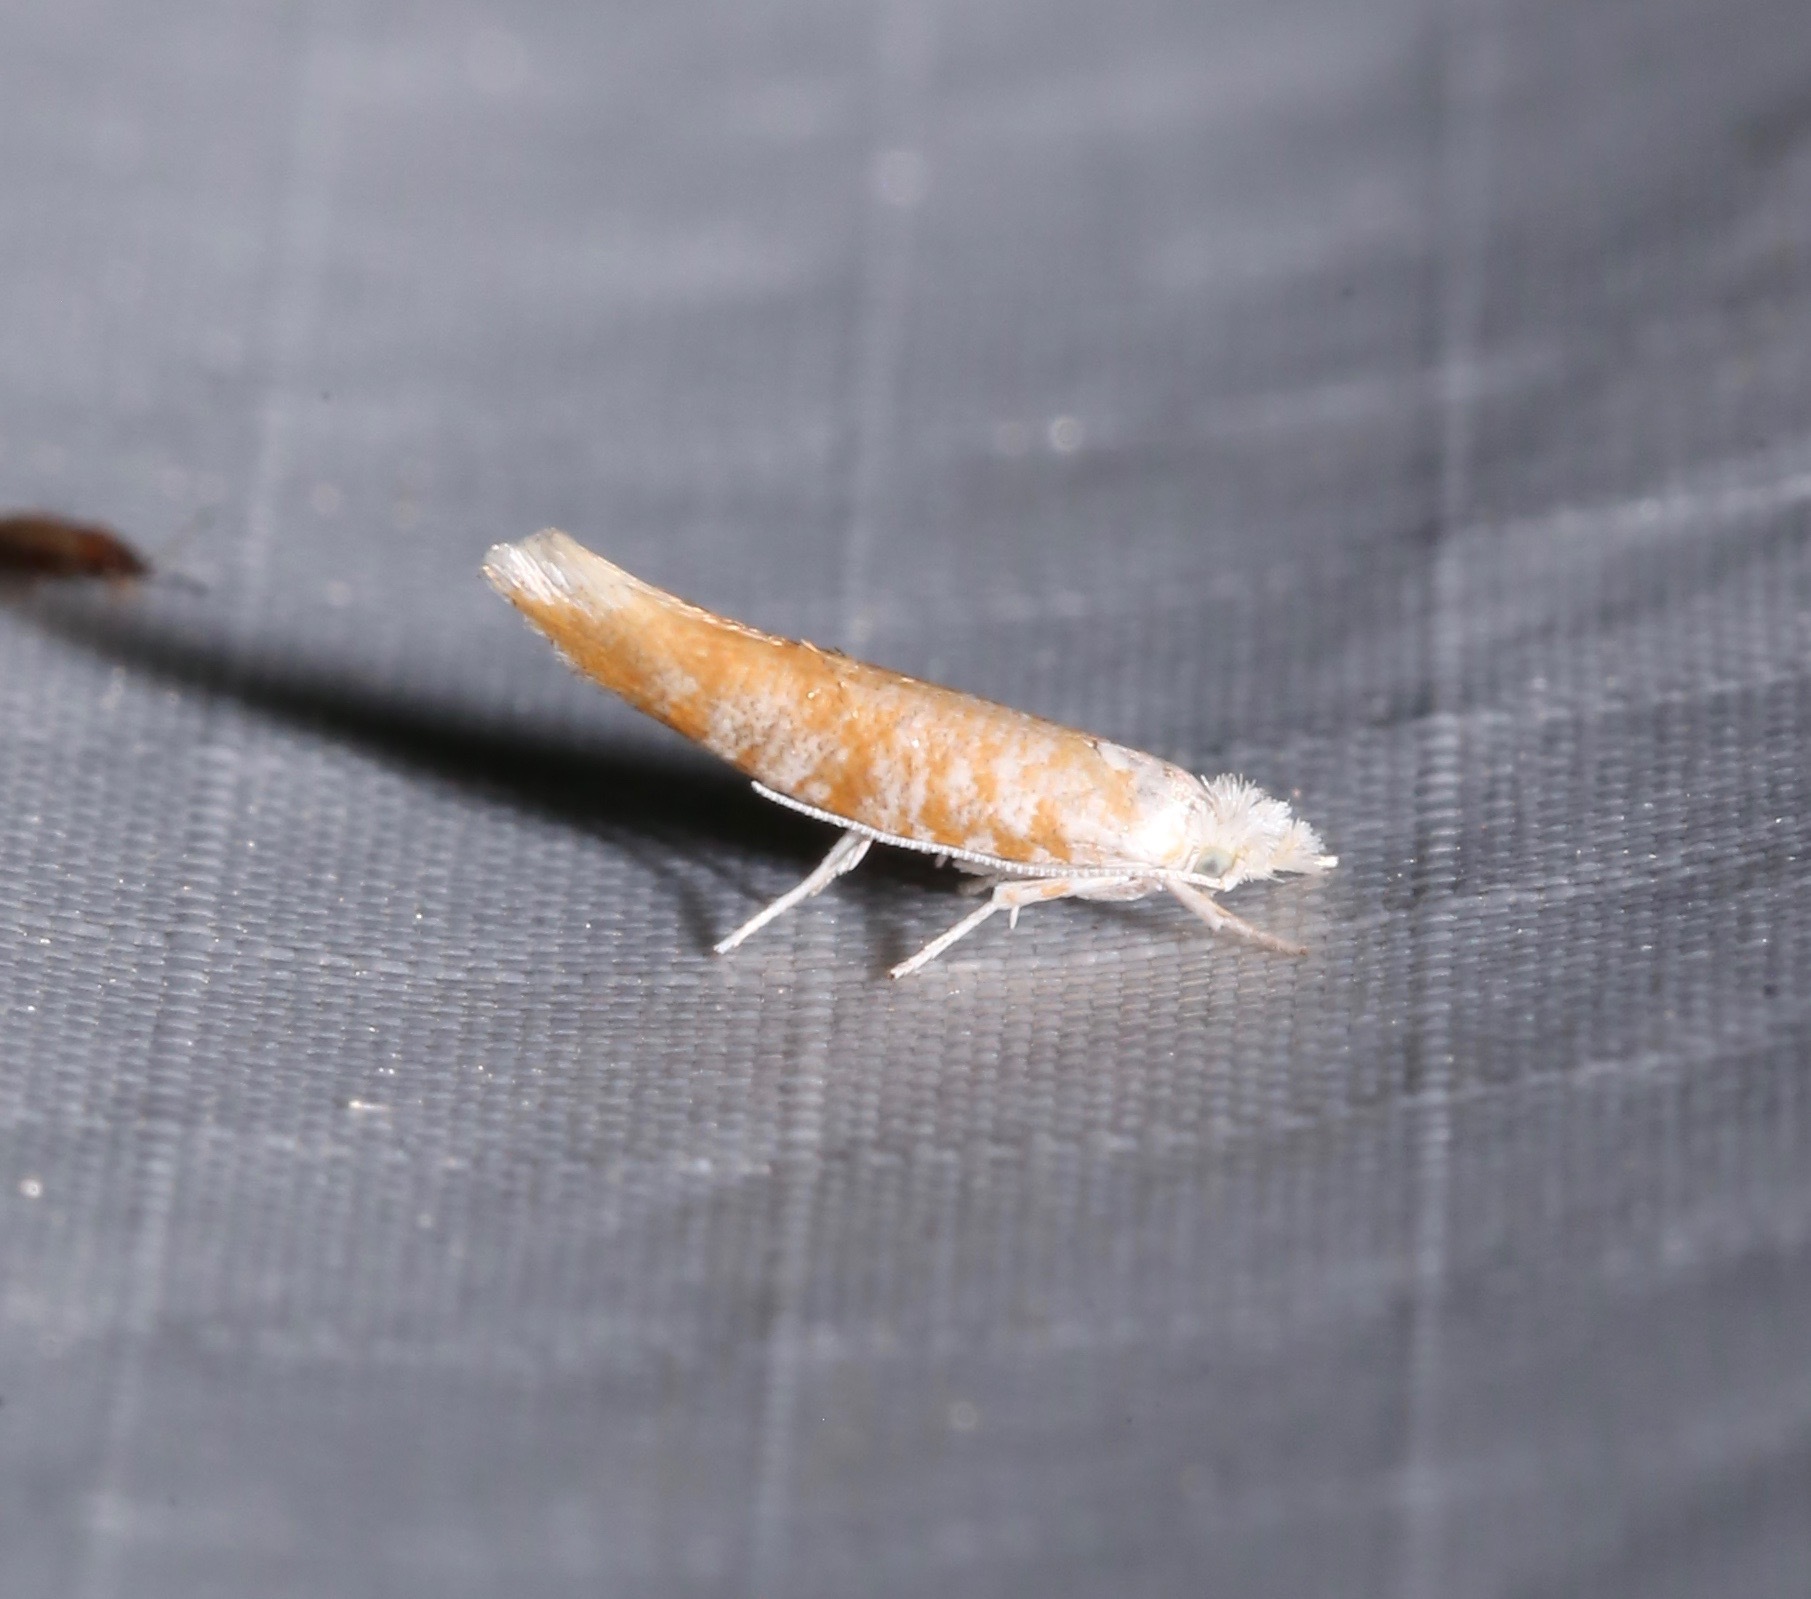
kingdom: Animalia
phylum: Arthropoda
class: Insecta
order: Lepidoptera
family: Yponomeutidae
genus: Zelleria
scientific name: Zelleria retiniella
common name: Brindled zelleria
